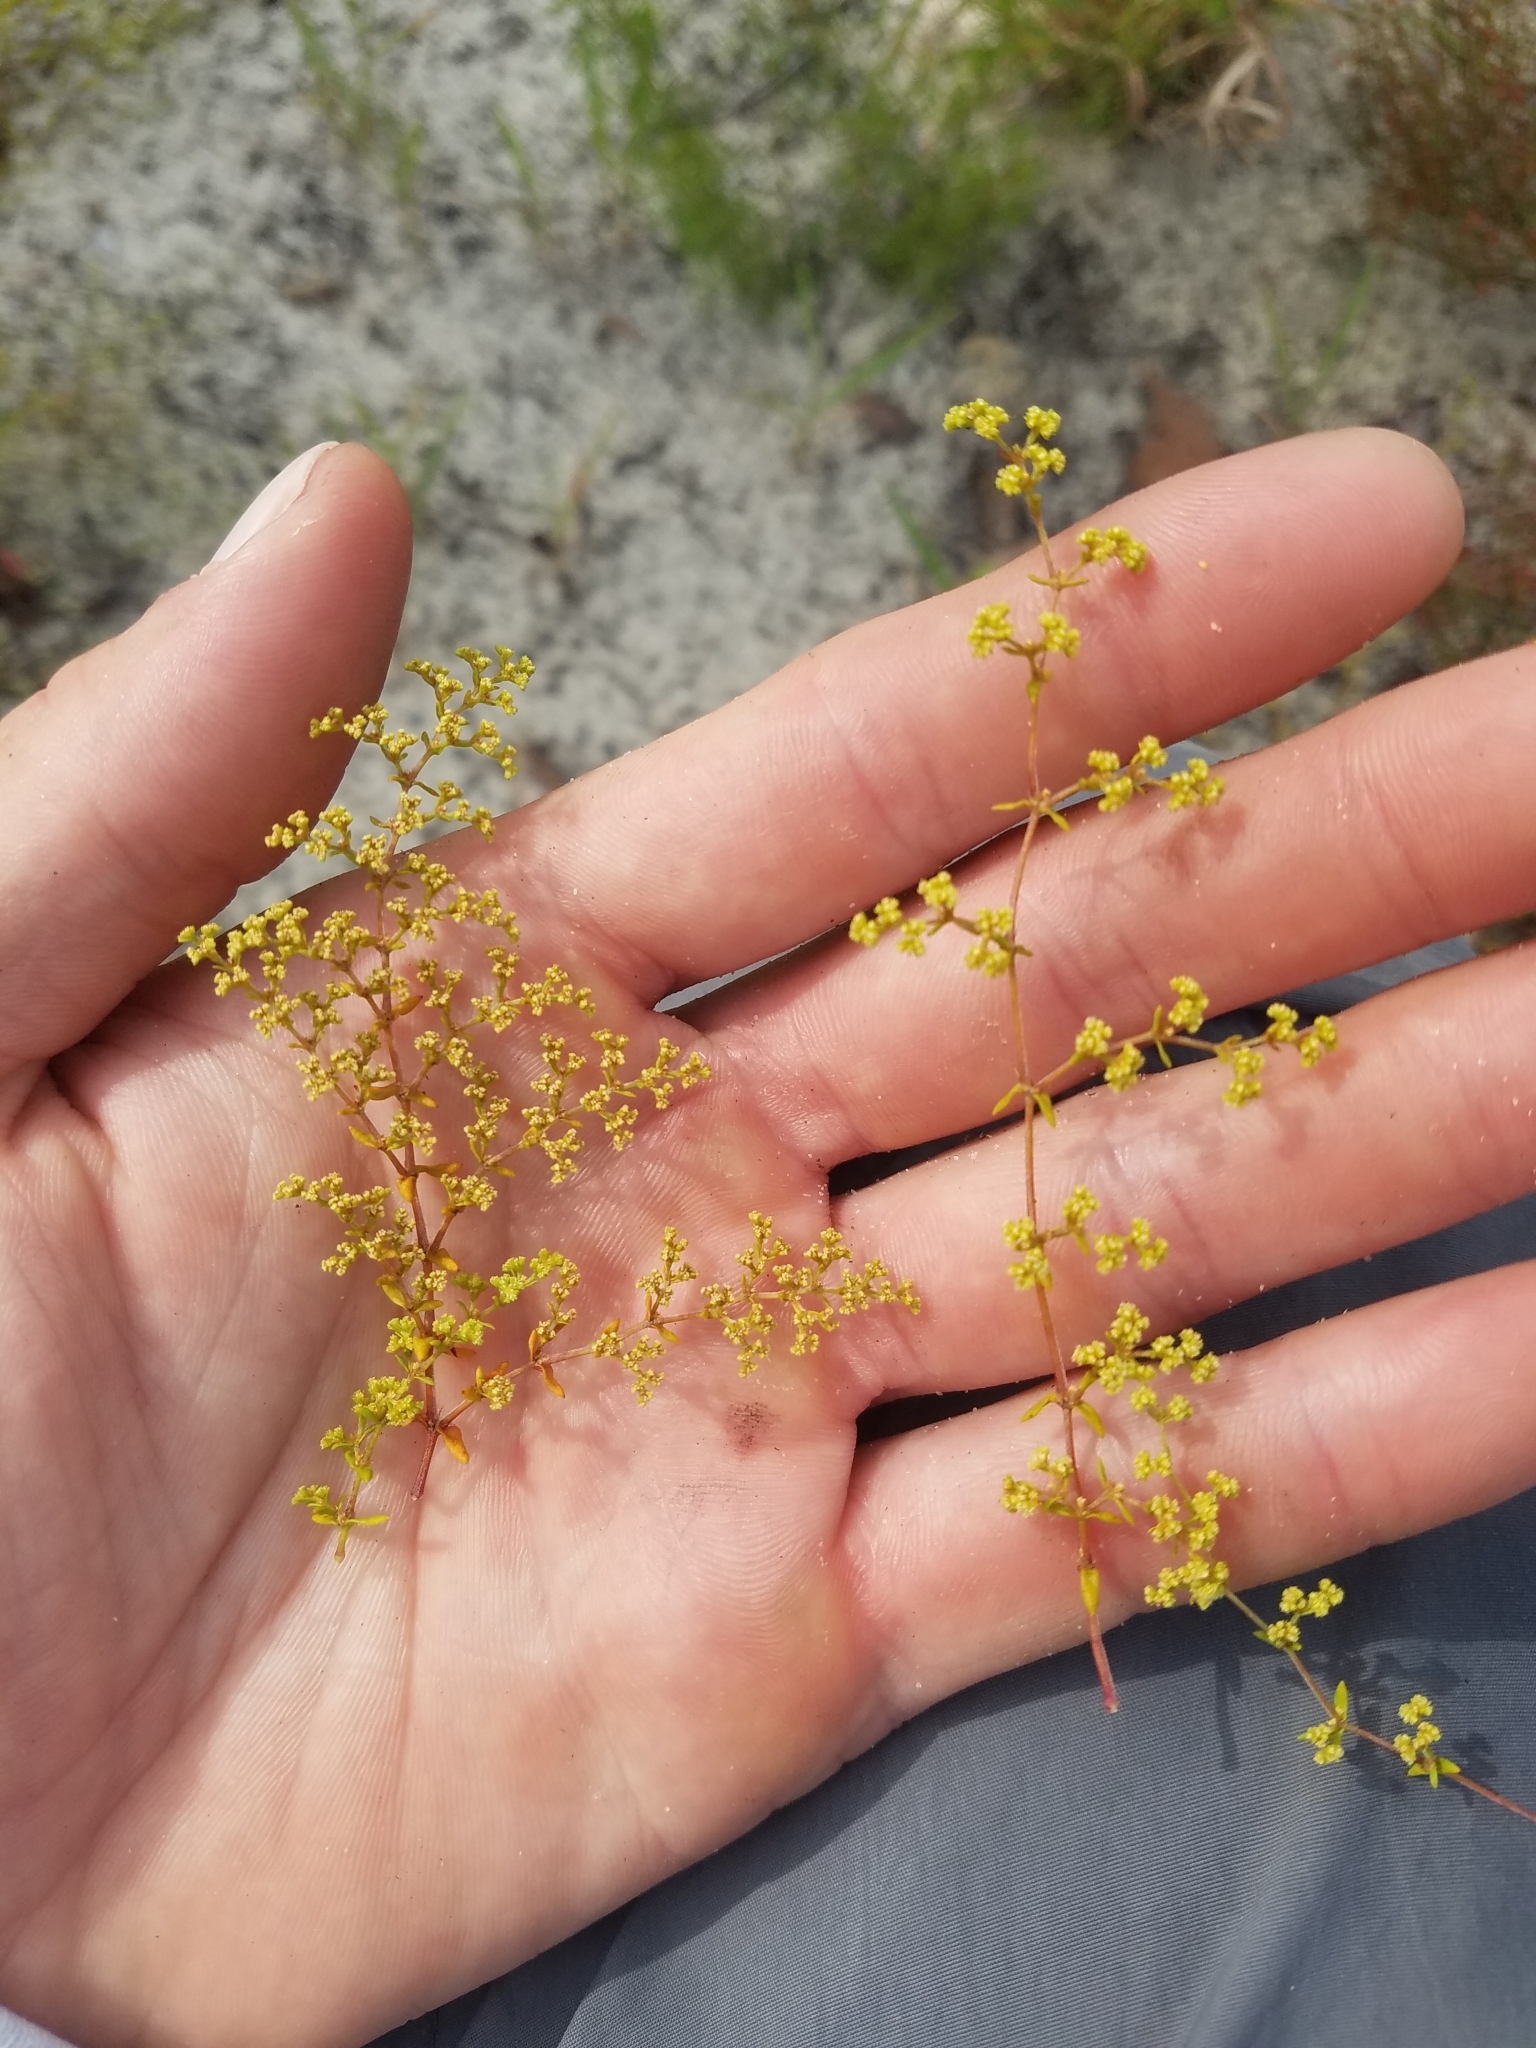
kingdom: Plantae
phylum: Tracheophyta
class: Magnoliopsida
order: Caryophyllales
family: Caryophyllaceae
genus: Paronychia
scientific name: Paronychia chartacea
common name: Paper nailwort
